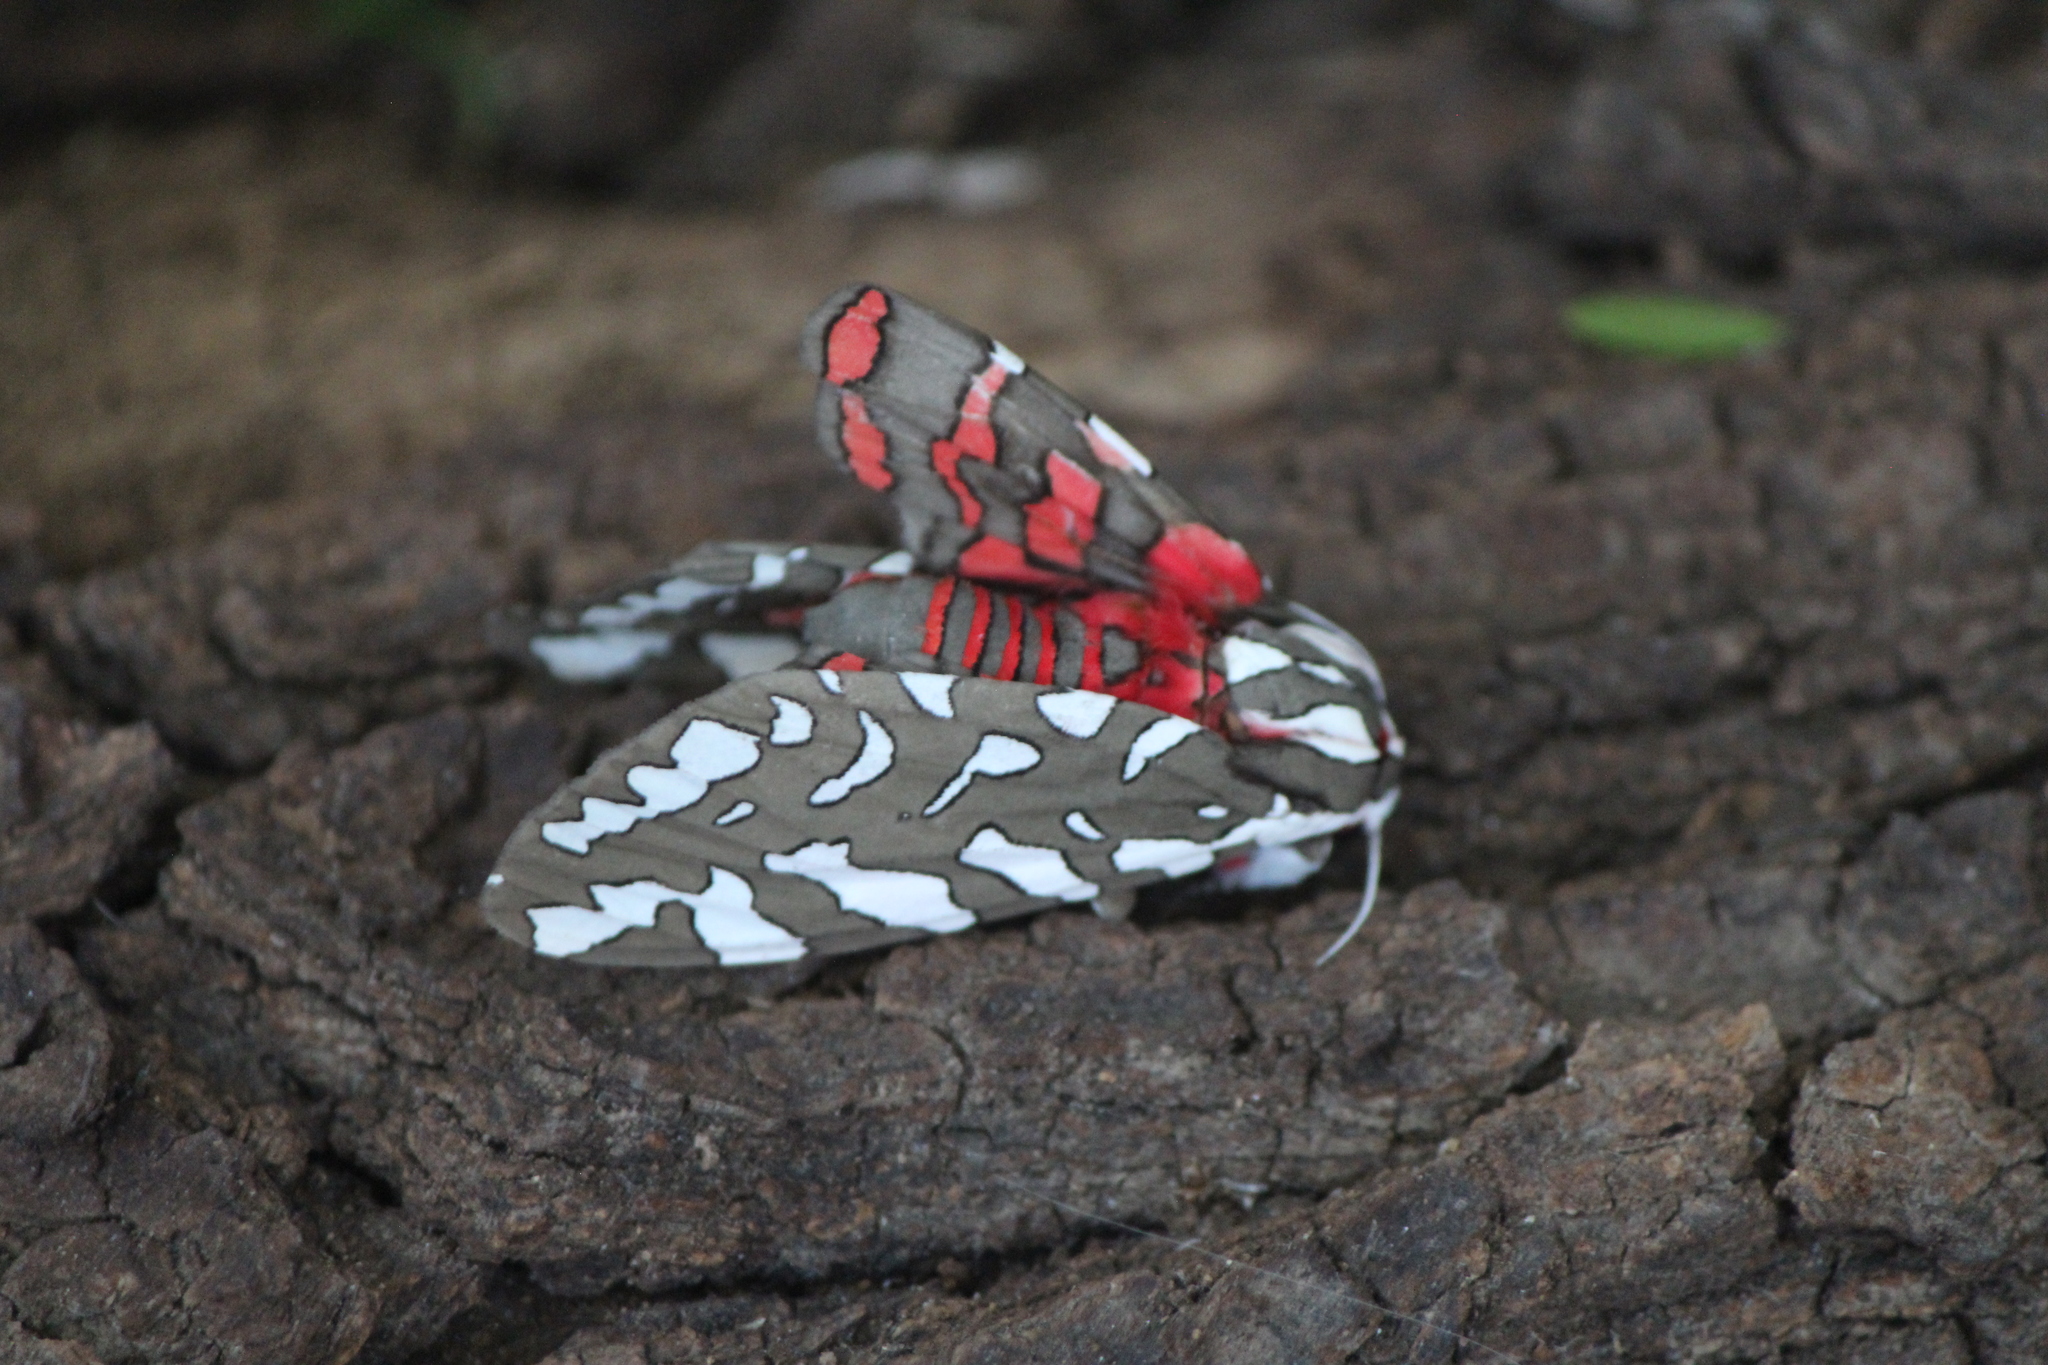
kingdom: Animalia
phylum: Arthropoda
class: Insecta
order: Lepidoptera
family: Erebidae
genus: Arachnis
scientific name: Arachnis dilecta
